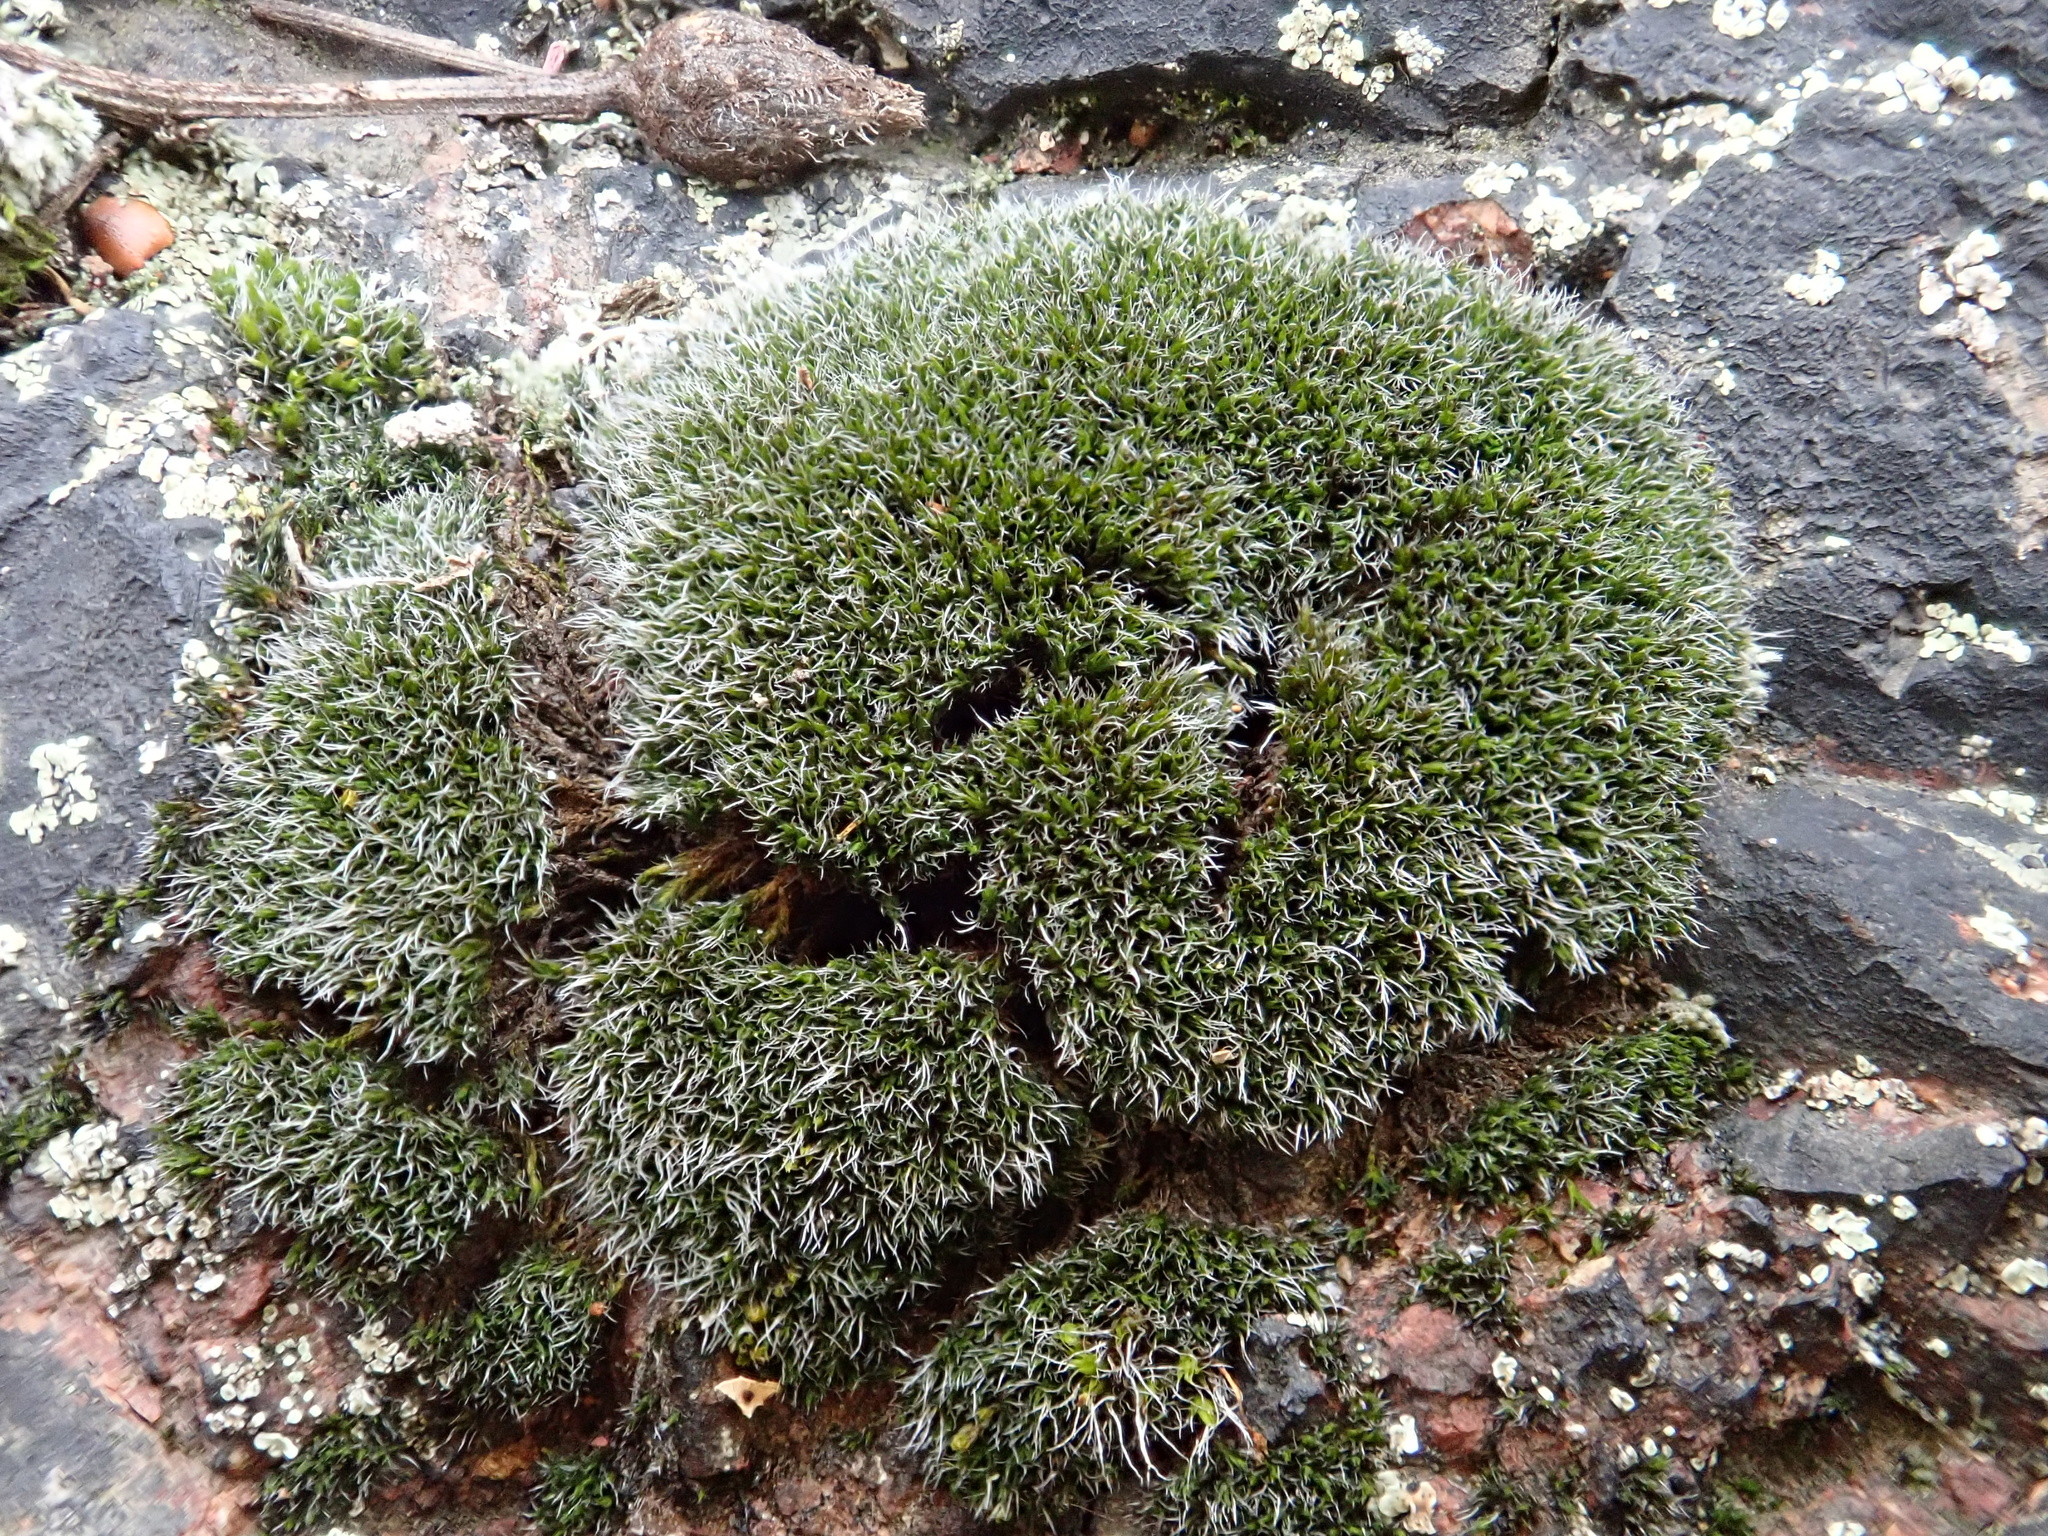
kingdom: Plantae
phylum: Bryophyta
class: Bryopsida
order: Grimmiales
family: Grimmiaceae
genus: Grimmia
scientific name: Grimmia montana
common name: Sun grimmia
